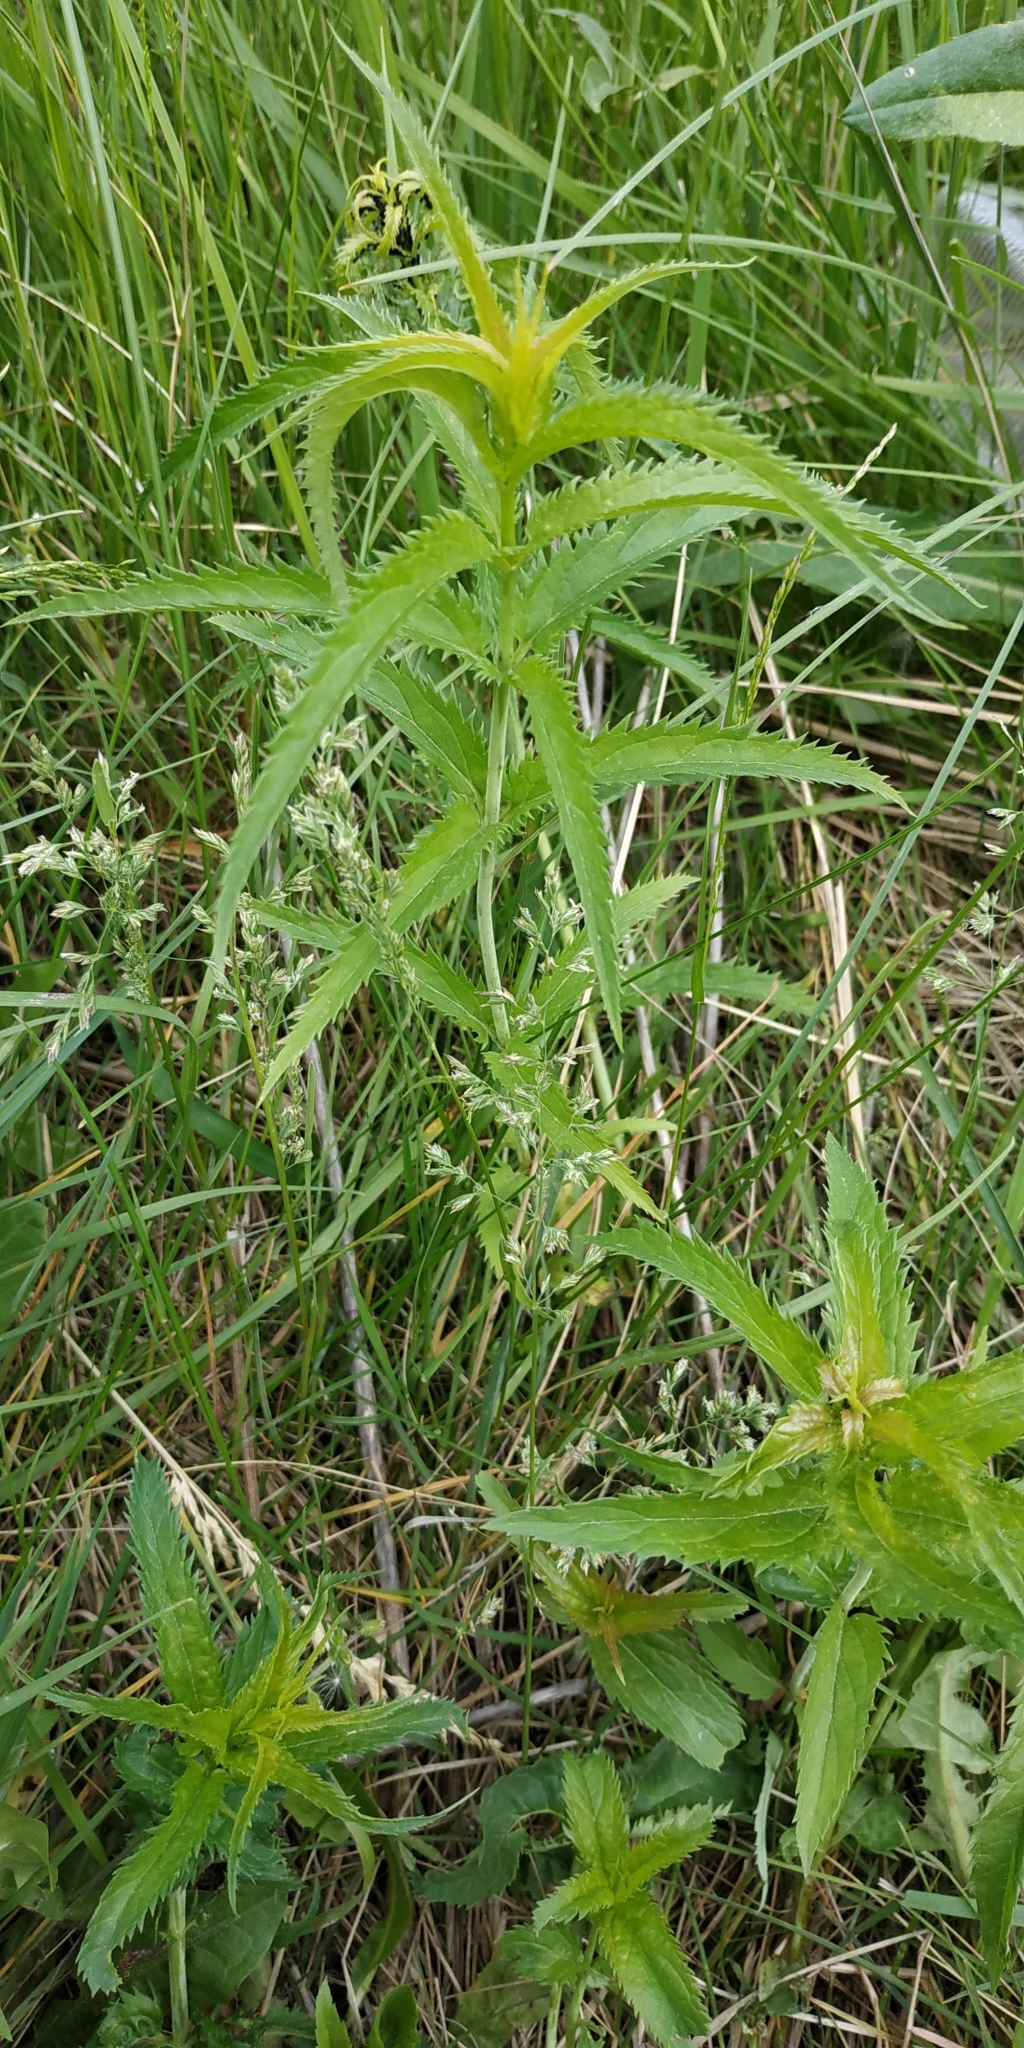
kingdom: Plantae
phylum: Tracheophyta
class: Magnoliopsida
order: Lamiales
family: Plantaginaceae
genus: Veronica
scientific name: Veronica longifolia
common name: Garden speedwell
